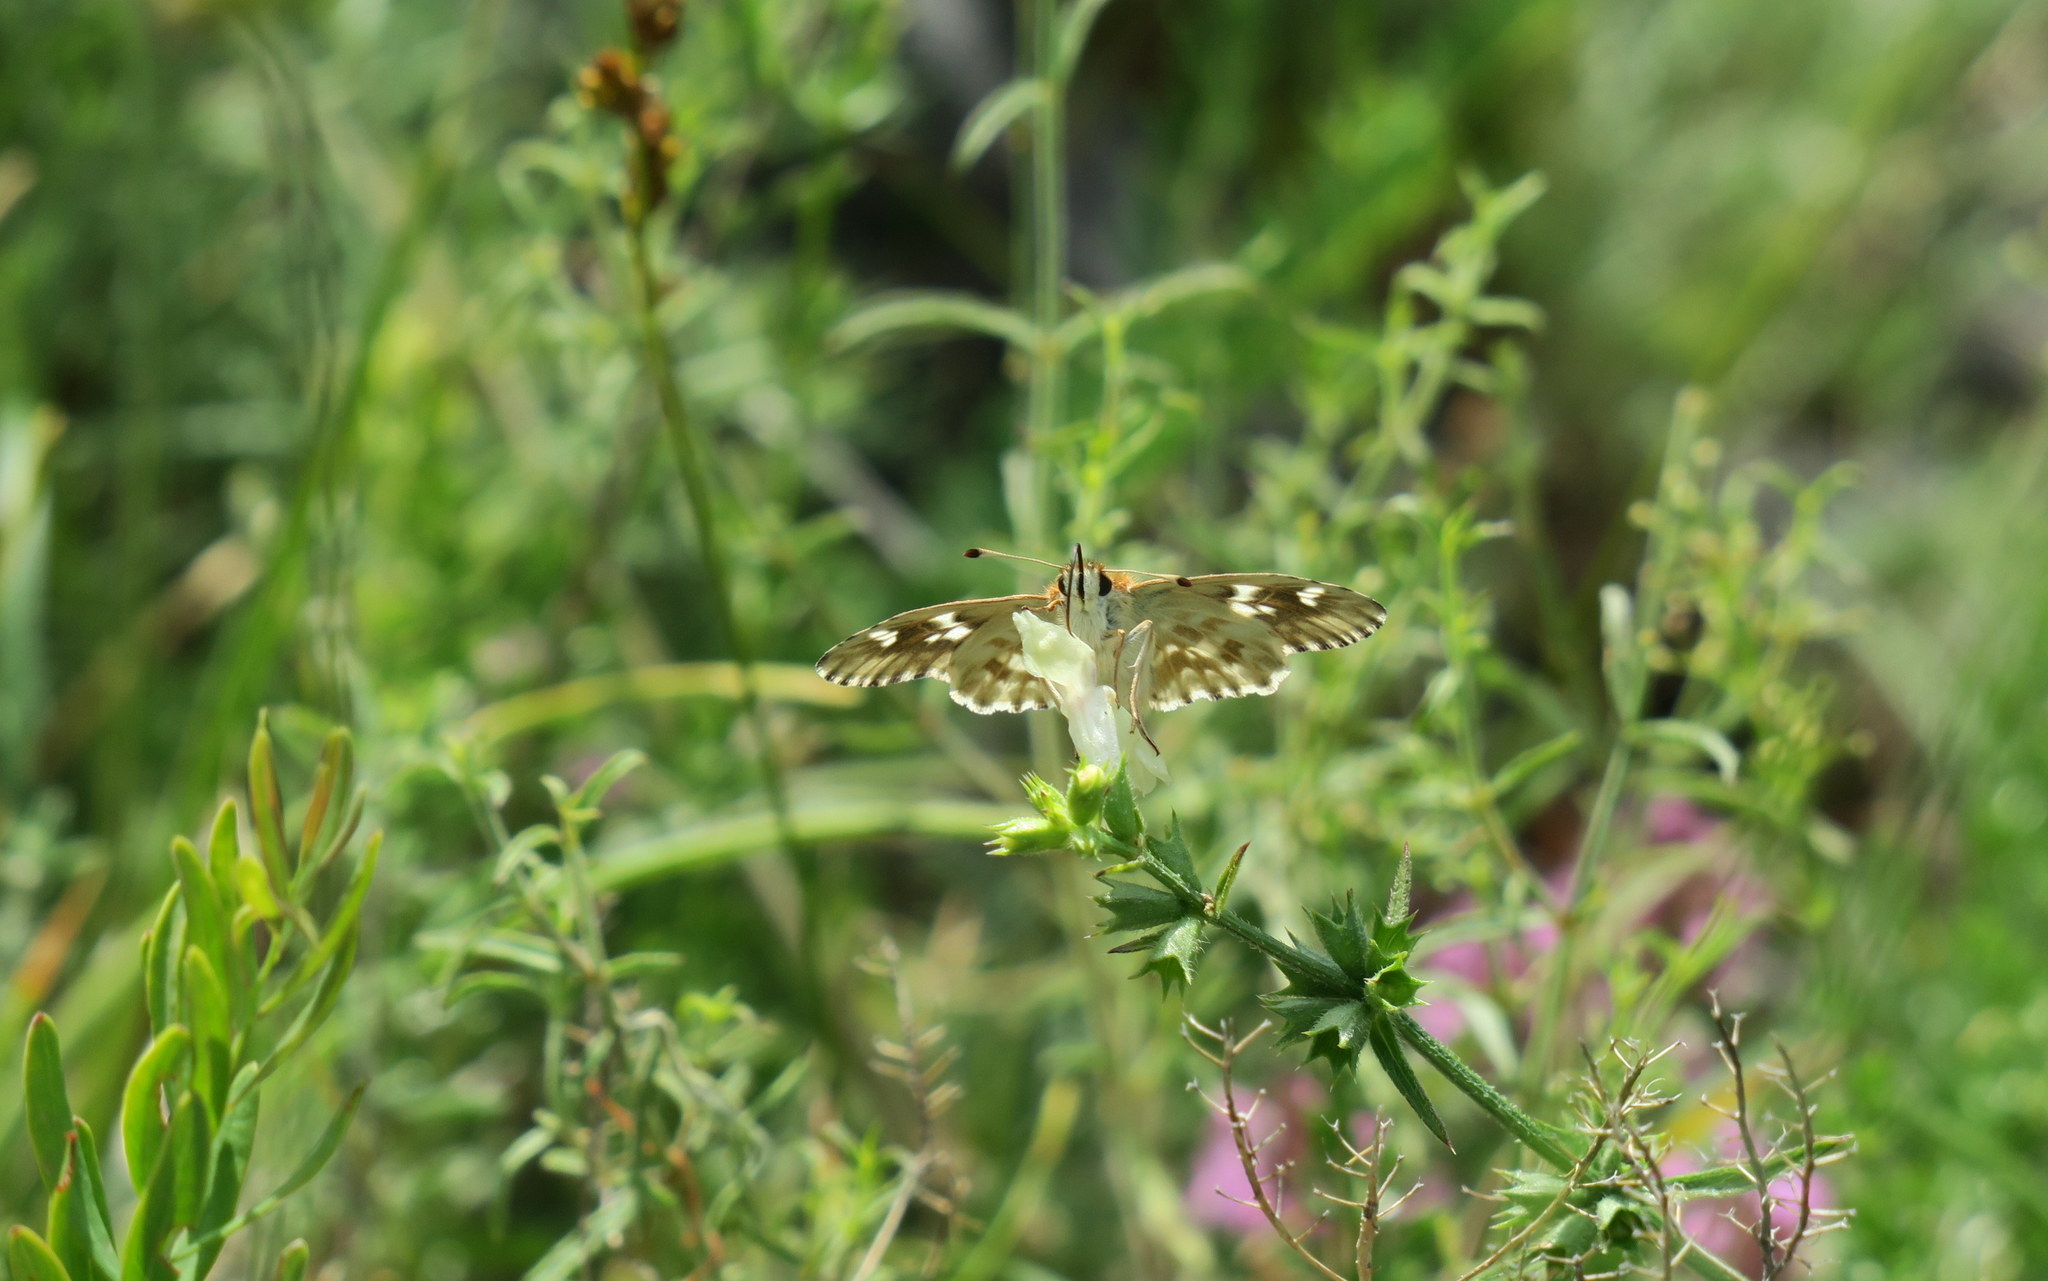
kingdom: Animalia
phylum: Arthropoda
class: Insecta
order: Lepidoptera
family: Hesperiidae
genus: Carcharodus
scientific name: Carcharodus lavatherae
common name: Marbled skipper
